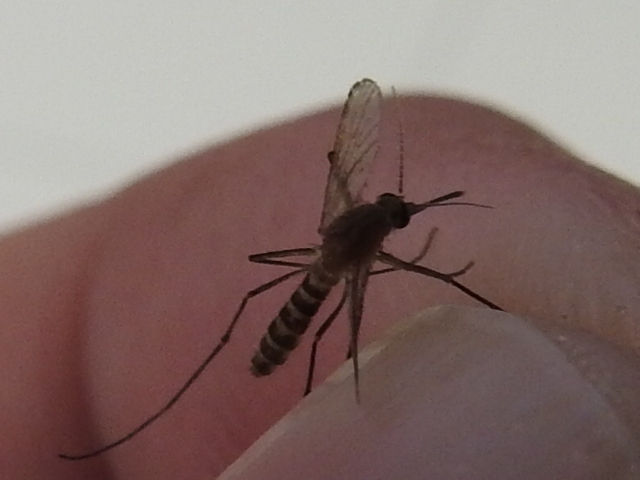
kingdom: Animalia
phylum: Arthropoda
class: Insecta
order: Diptera
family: Culicidae
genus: Culex
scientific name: Culex quinquefasciatus
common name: Southern house mosquito
